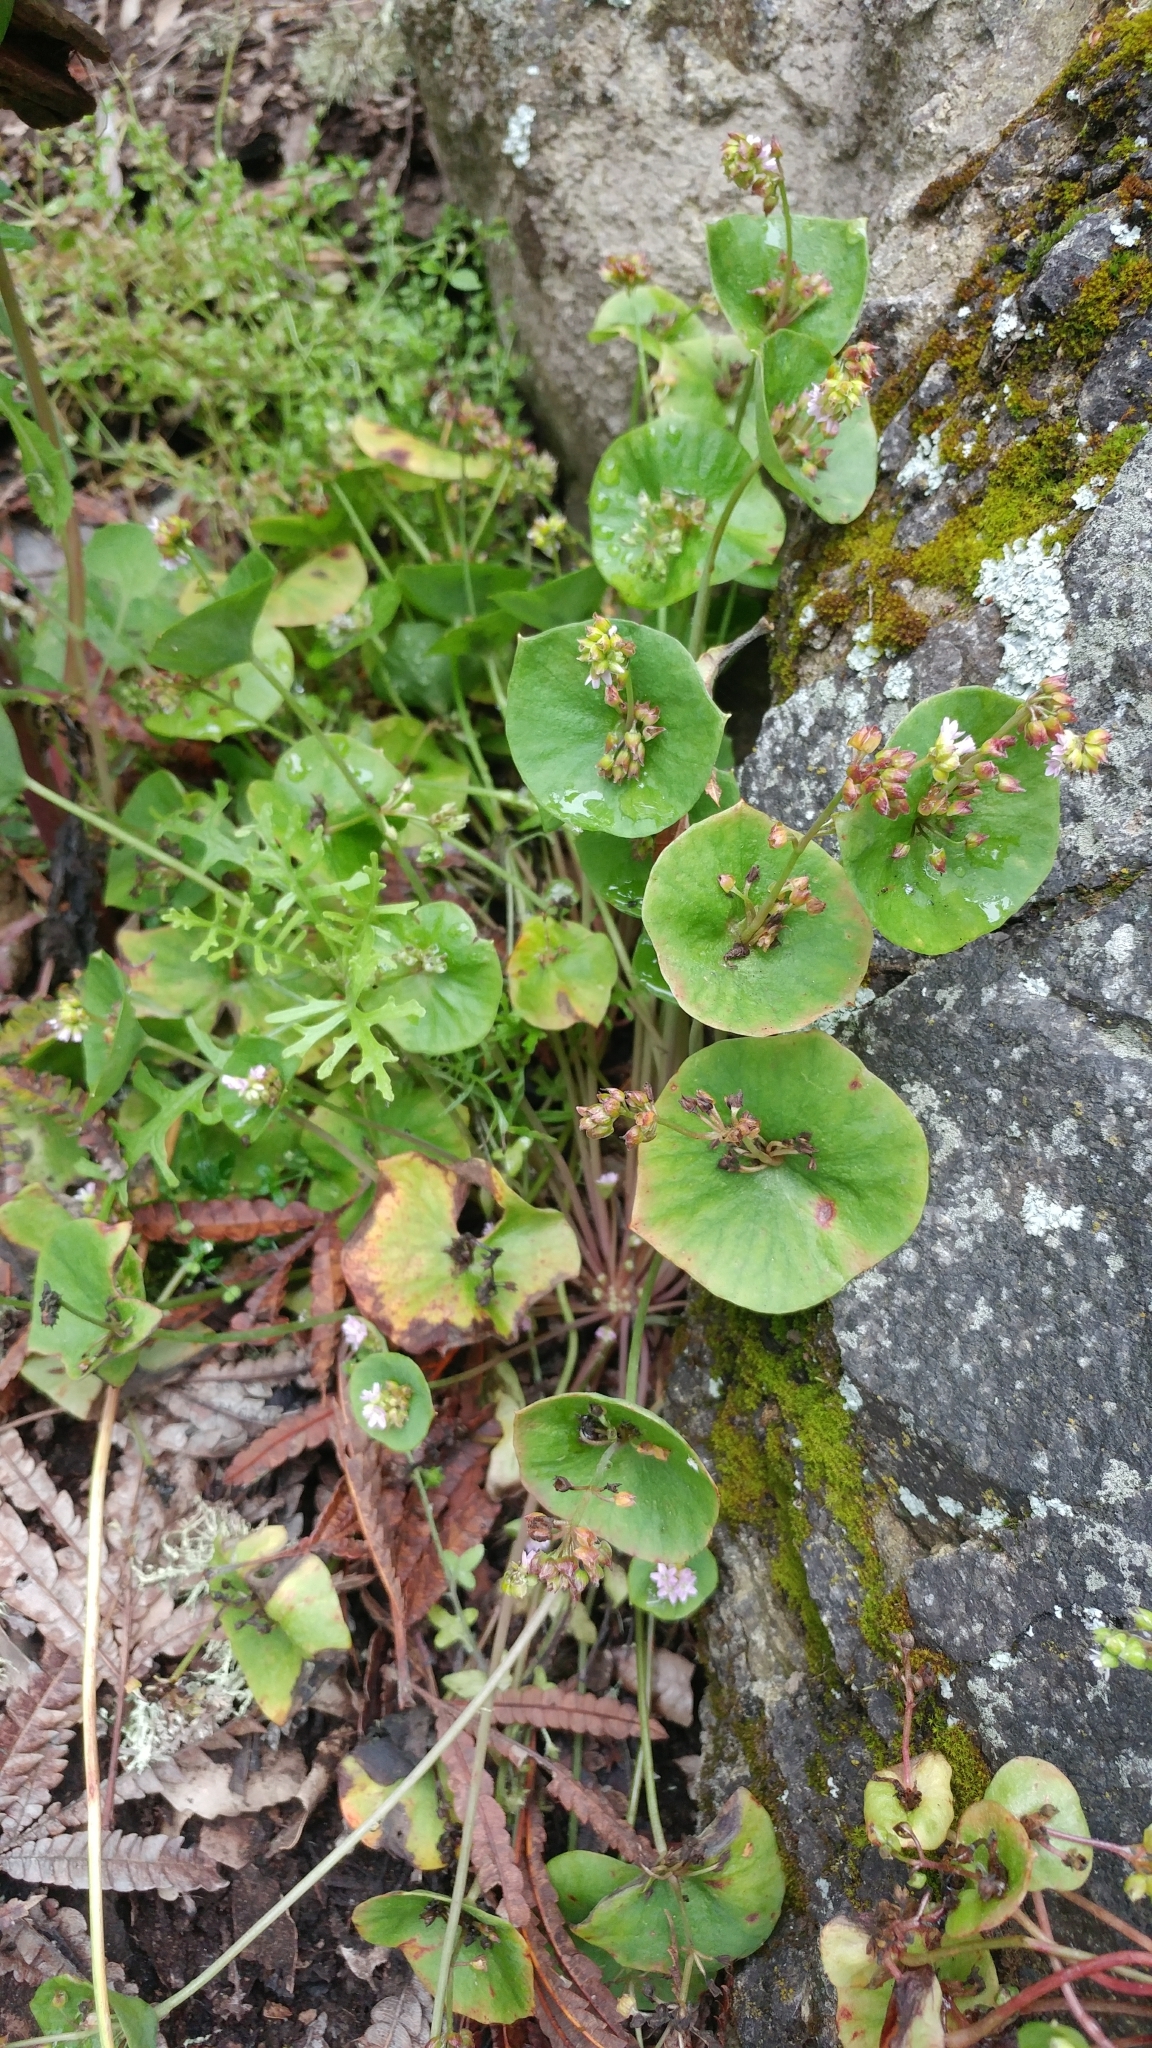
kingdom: Plantae
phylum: Tracheophyta
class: Magnoliopsida
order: Caryophyllales
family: Montiaceae
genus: Claytonia
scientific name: Claytonia perfoliata
